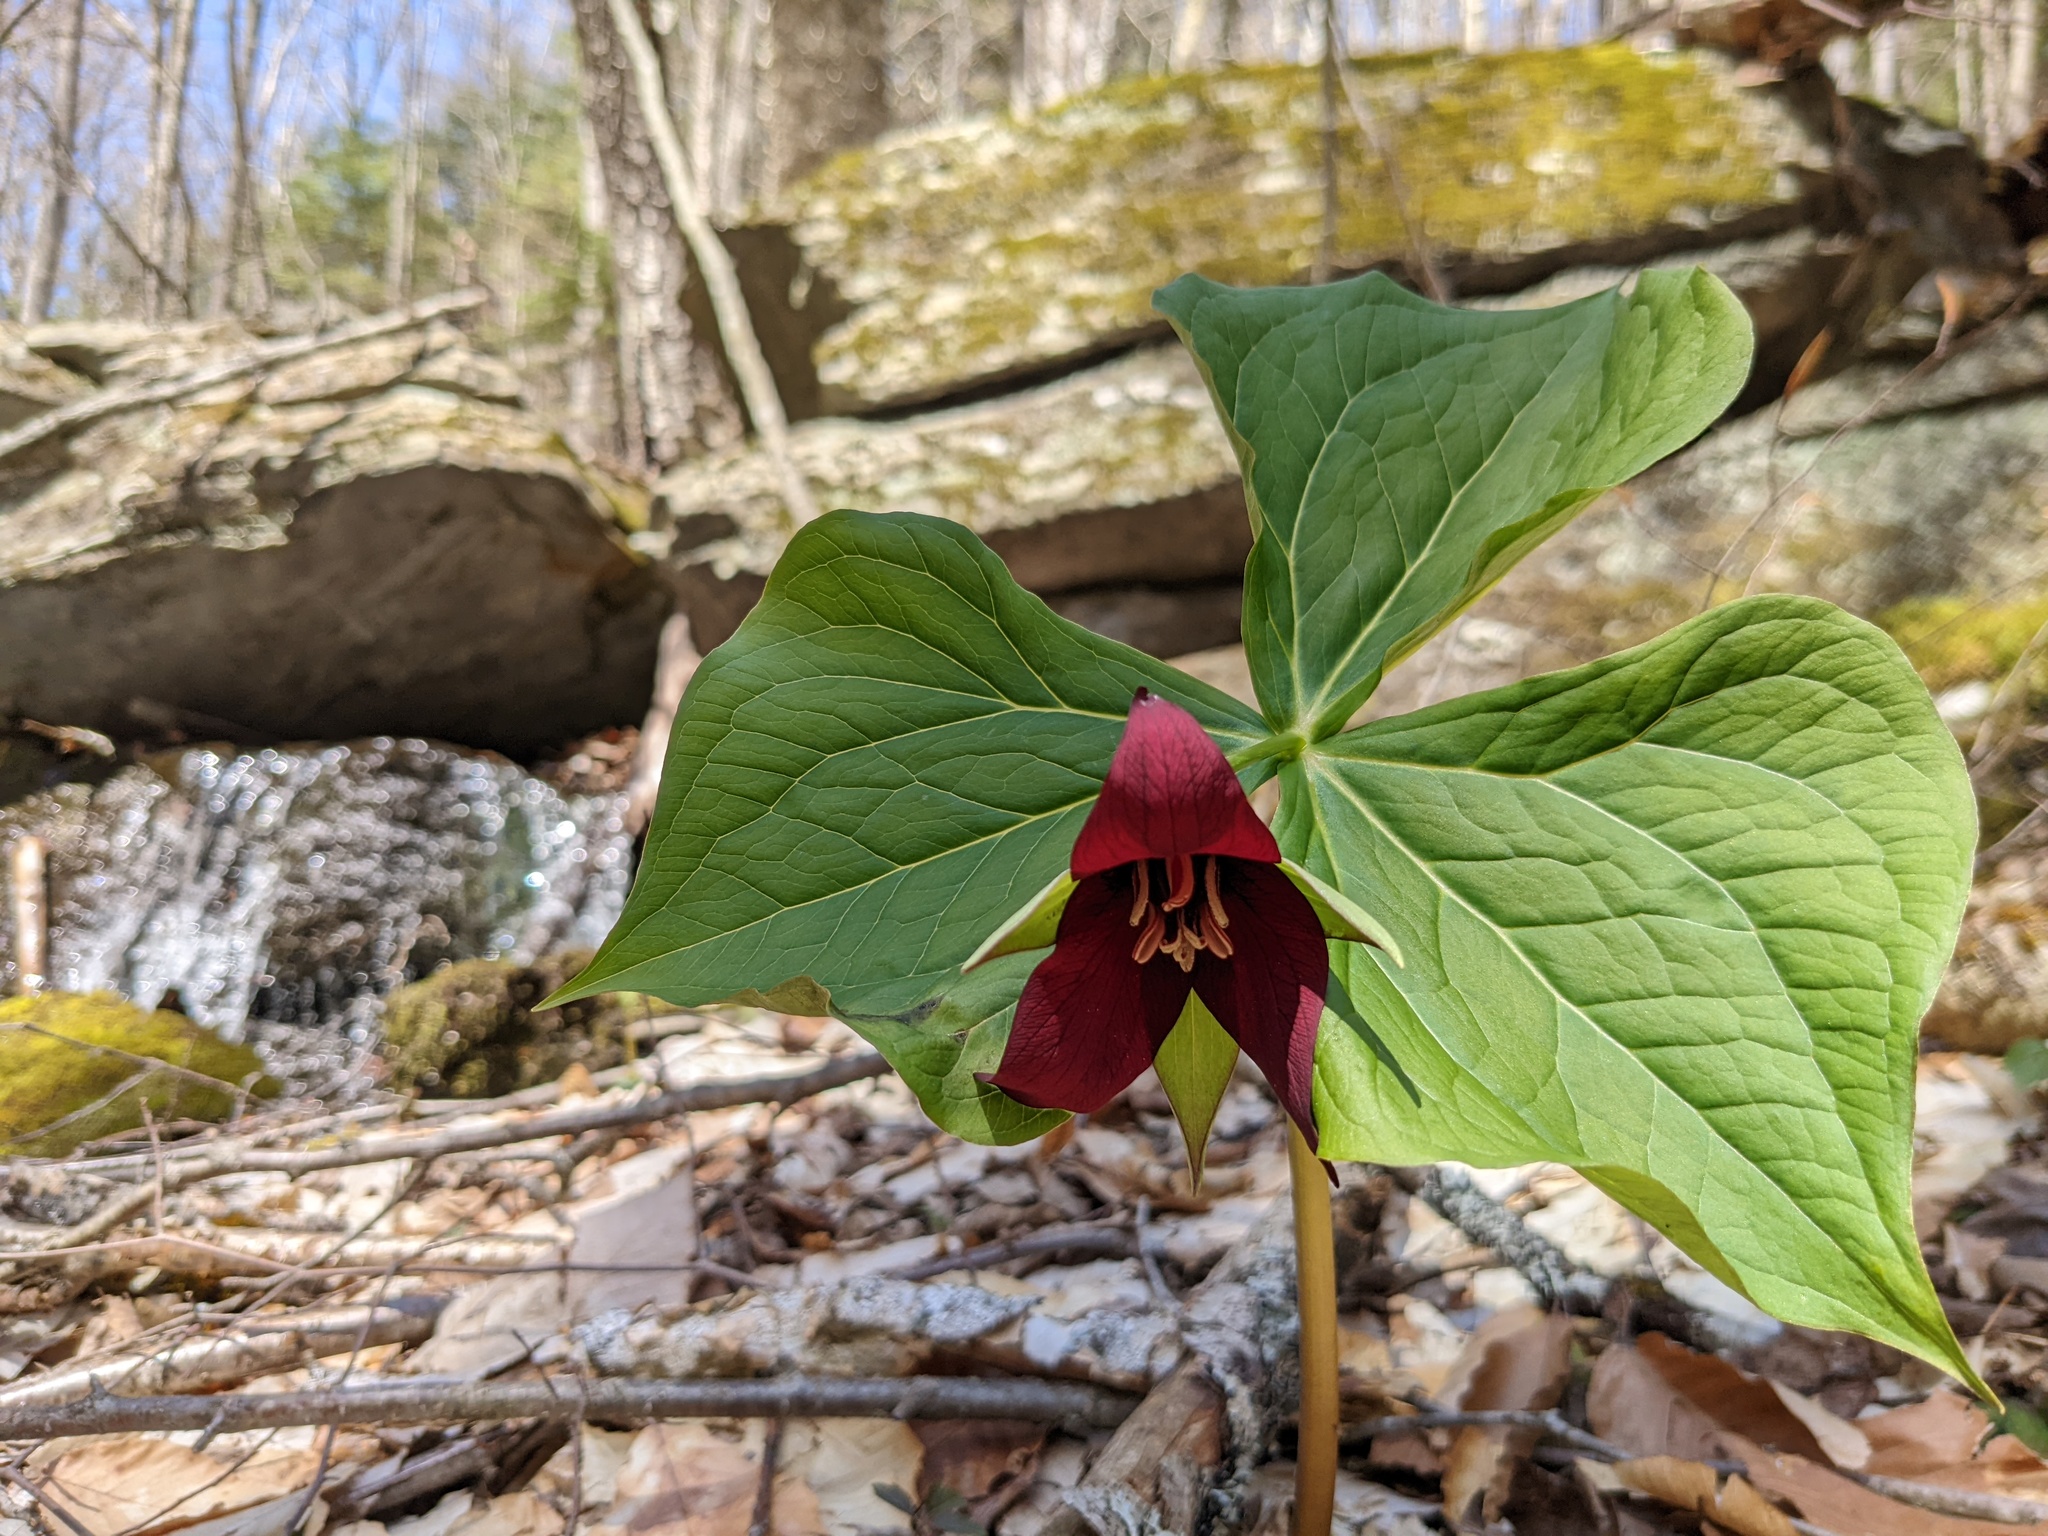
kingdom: Plantae
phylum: Tracheophyta
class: Liliopsida
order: Liliales
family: Melanthiaceae
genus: Trillium
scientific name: Trillium erectum
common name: Purple trillium
